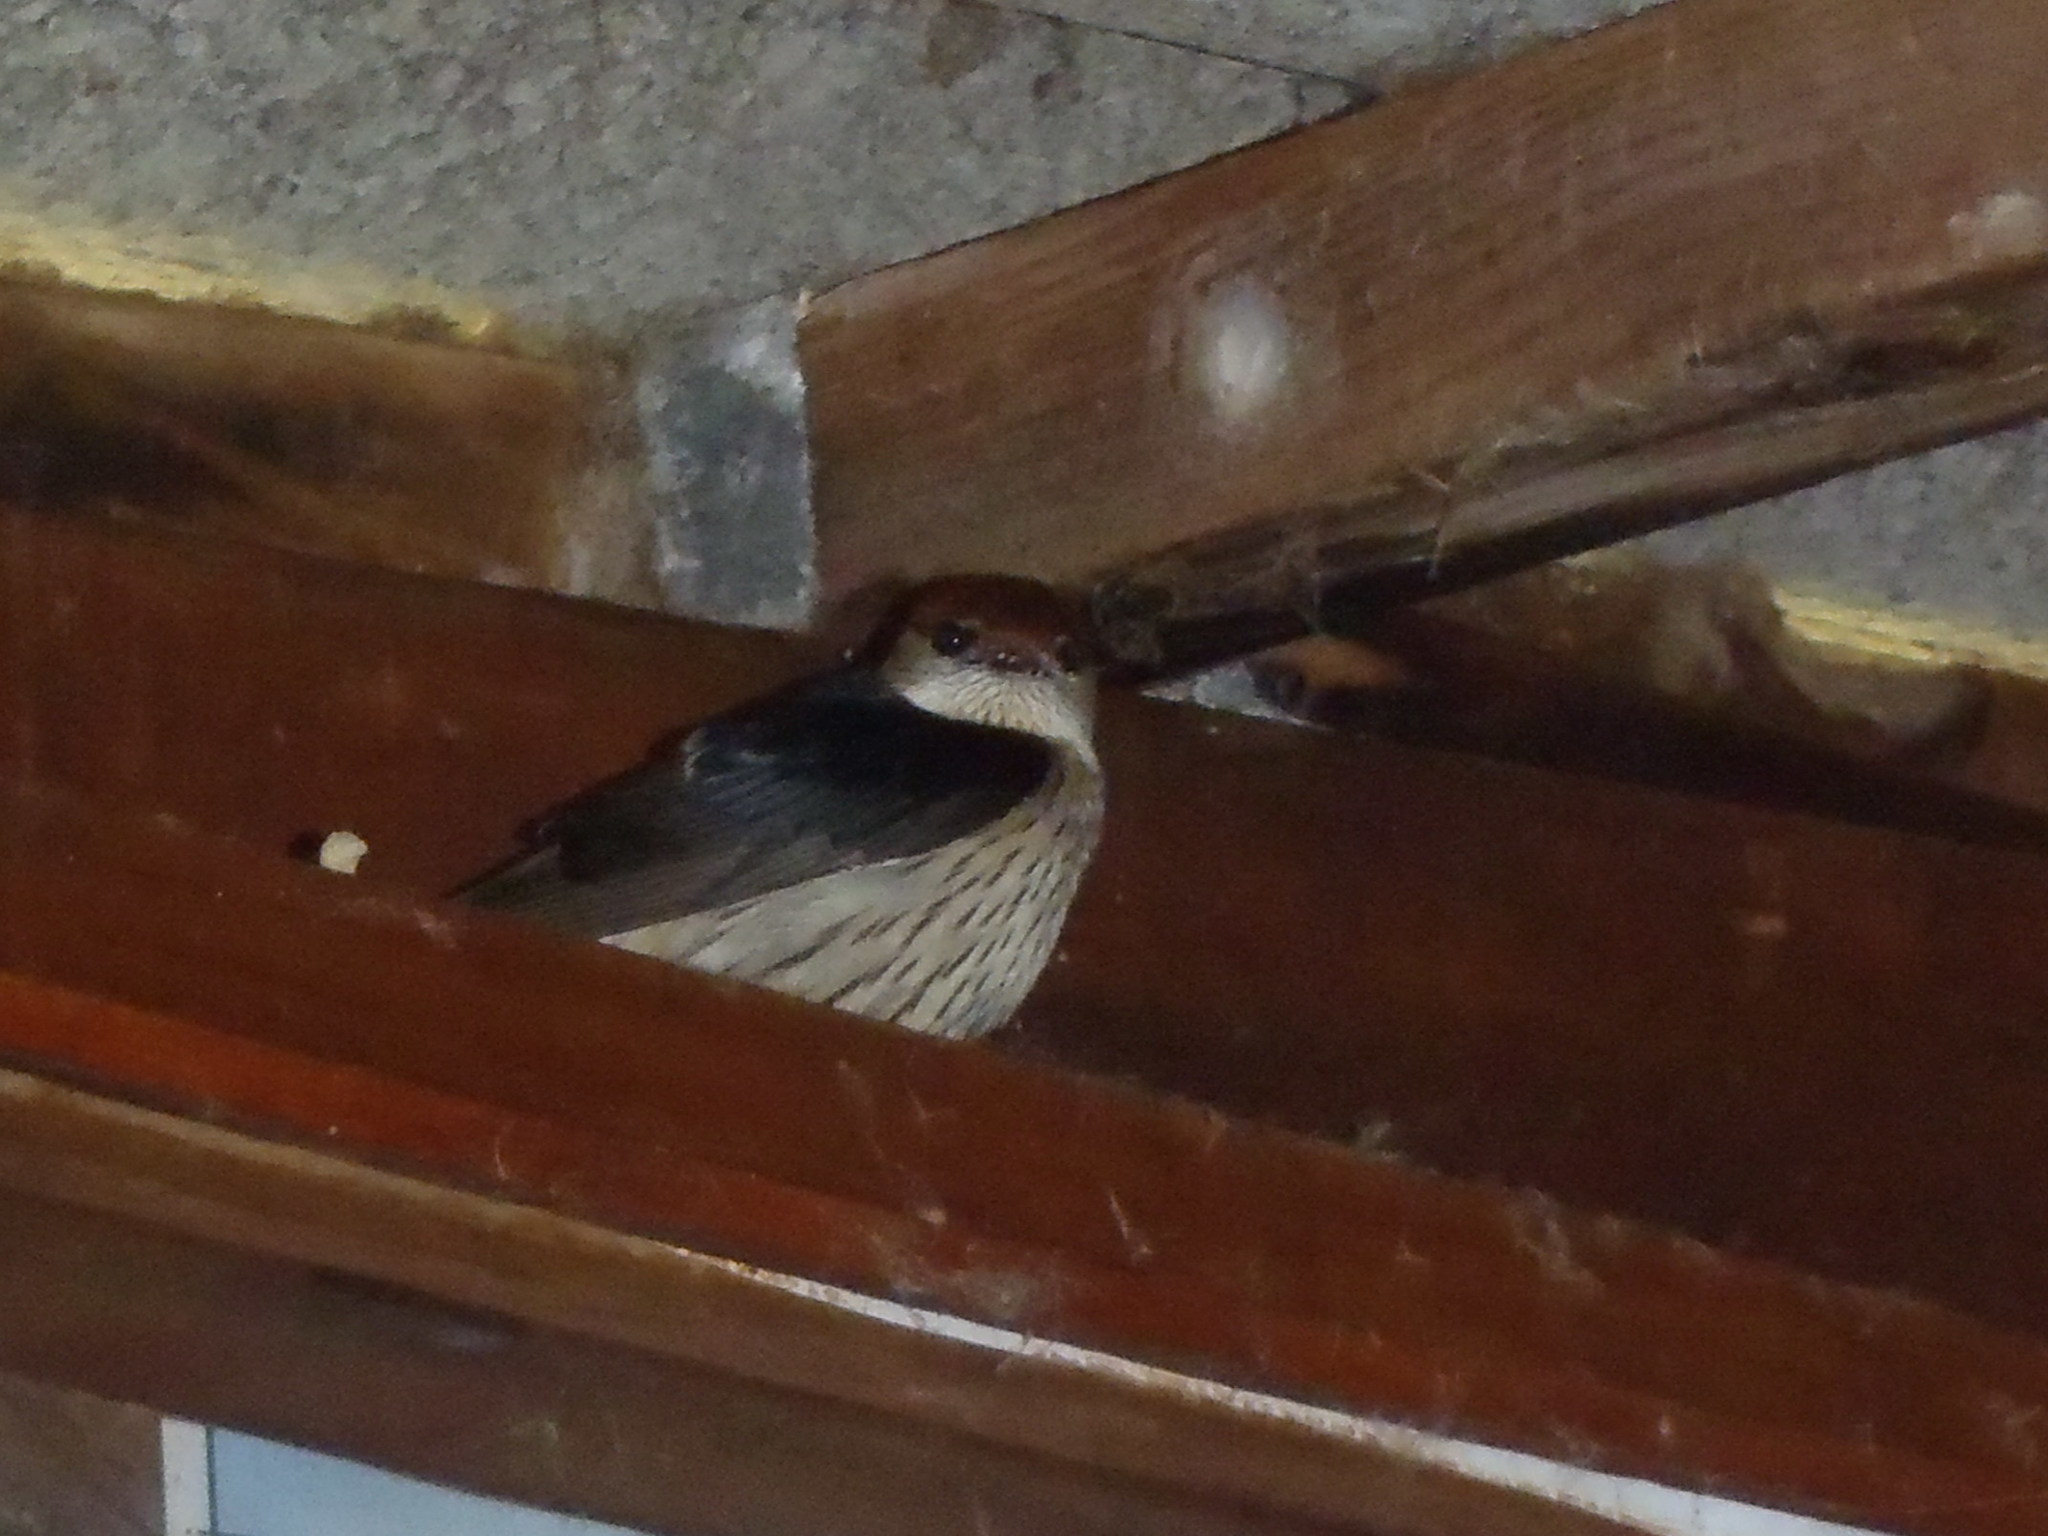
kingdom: Animalia
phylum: Chordata
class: Aves
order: Passeriformes
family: Hirundinidae
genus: Cecropis
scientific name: Cecropis cucullata
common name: Greater striped-swallow
